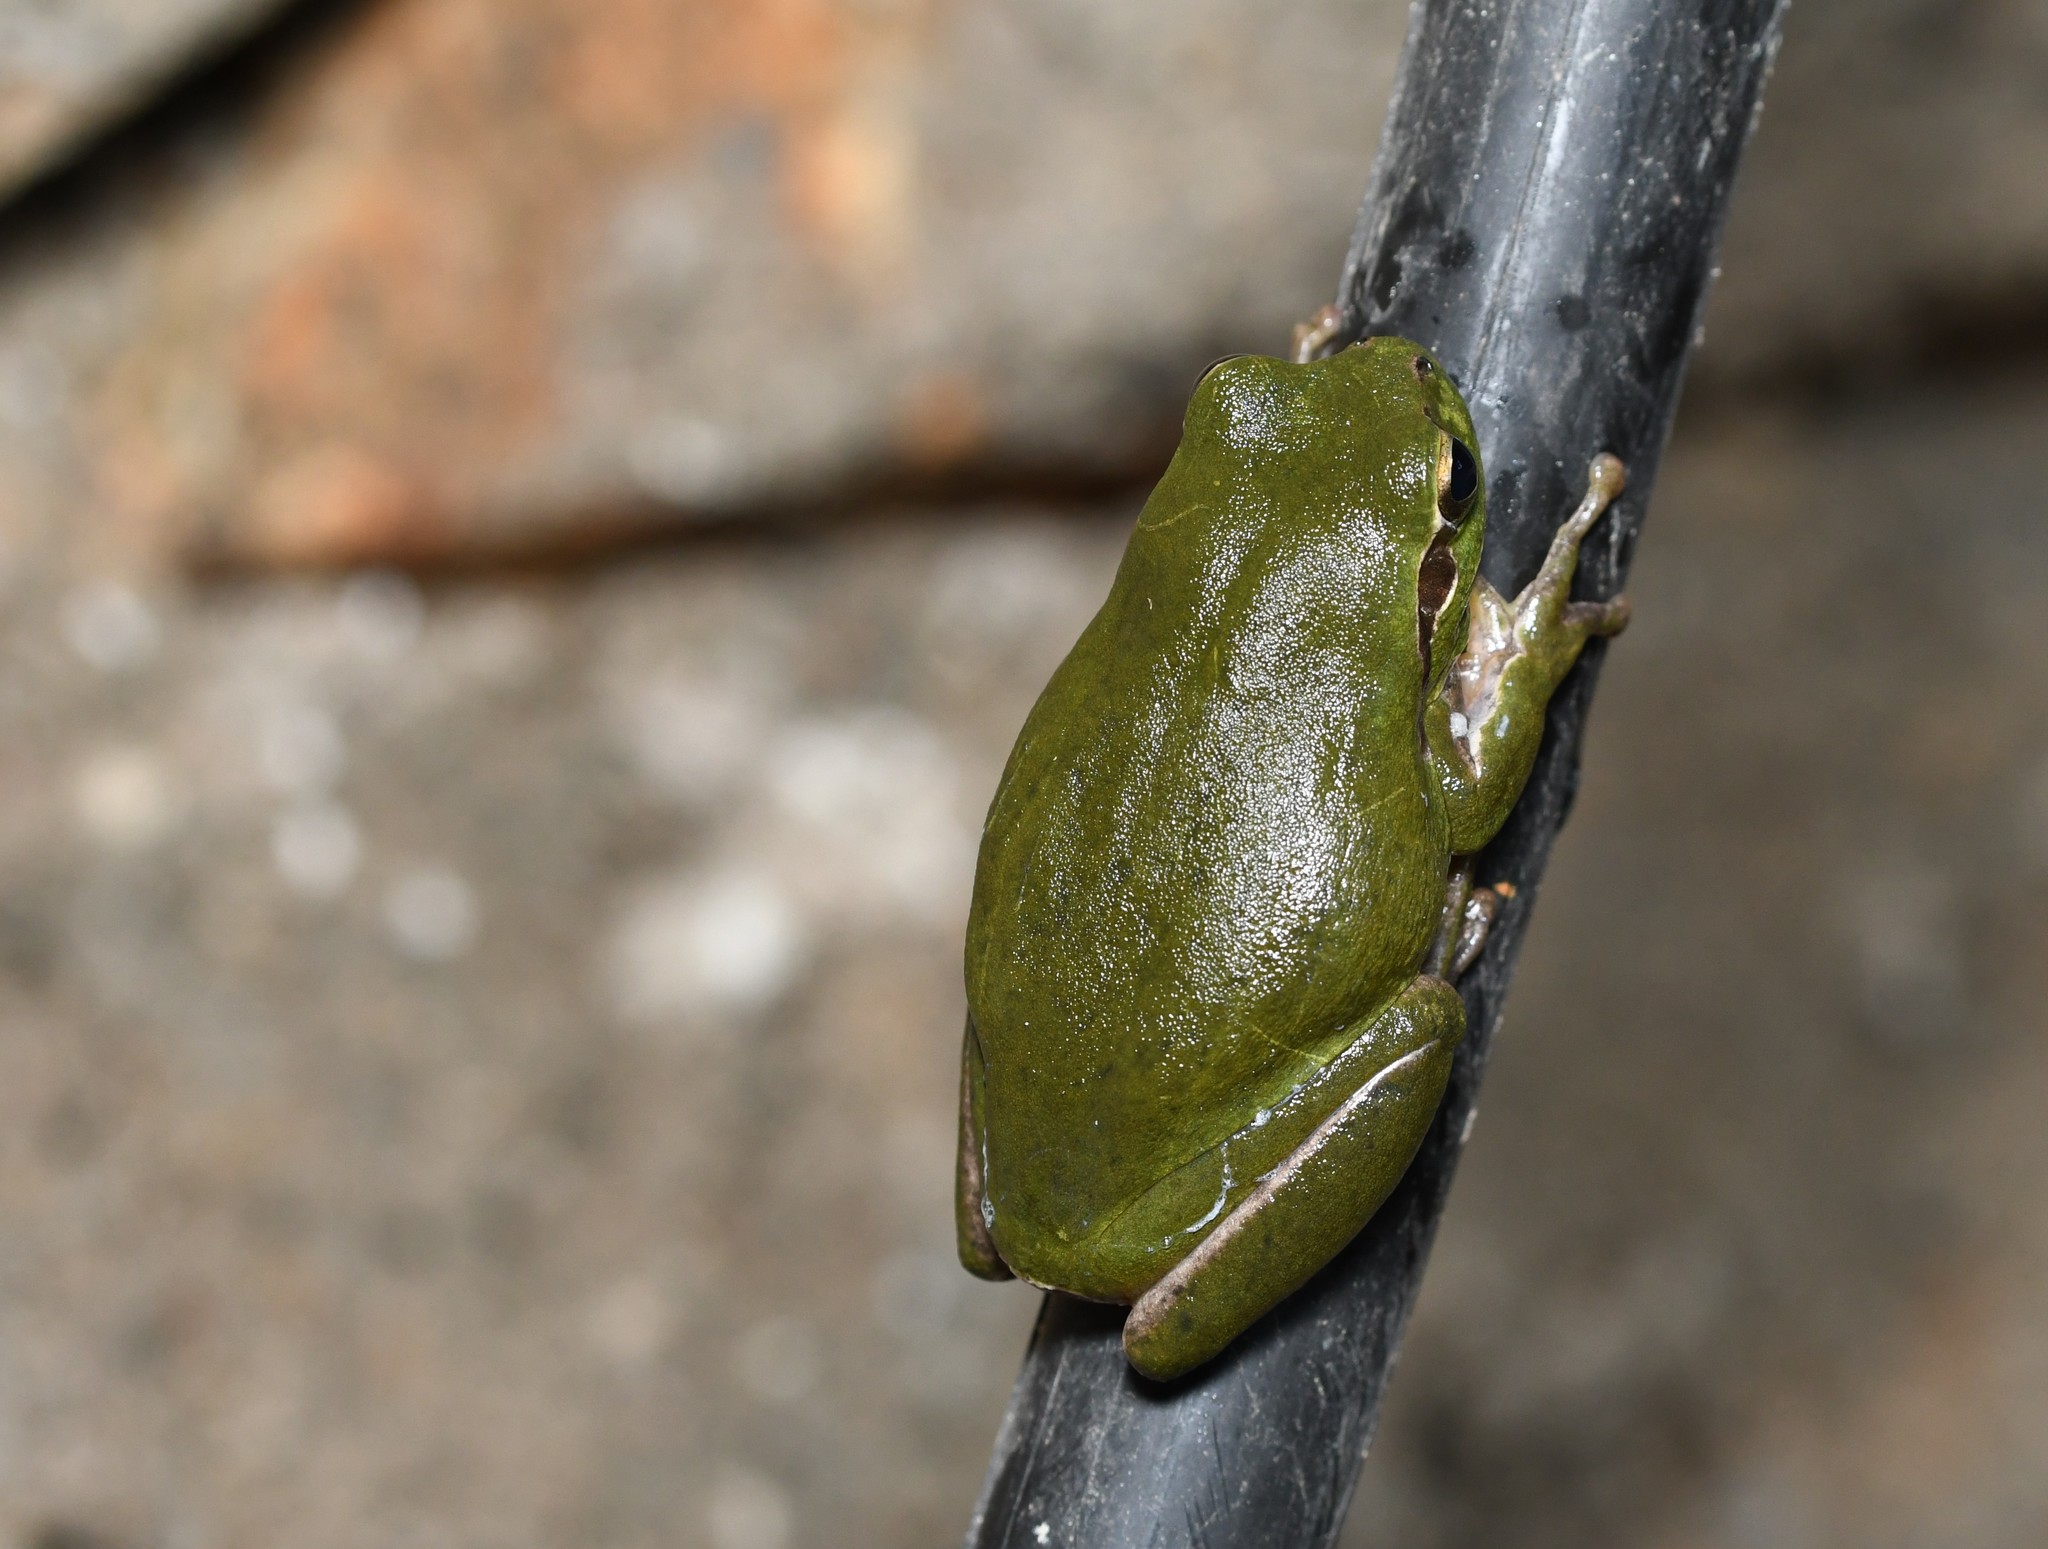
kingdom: Animalia
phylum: Chordata
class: Amphibia
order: Anura
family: Hylidae
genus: Hyla
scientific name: Hyla meridionalis
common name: Stripeless tree frog
